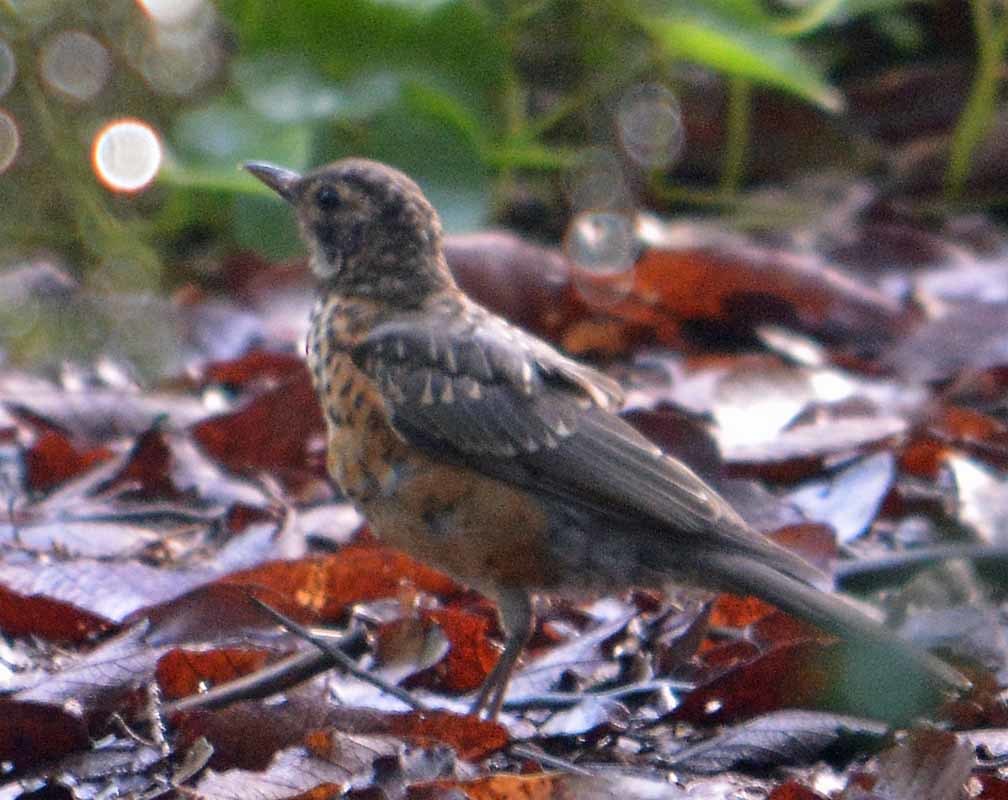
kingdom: Animalia
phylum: Chordata
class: Aves
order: Passeriformes
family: Turdidae
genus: Turdus
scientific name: Turdus migratorius
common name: American robin
